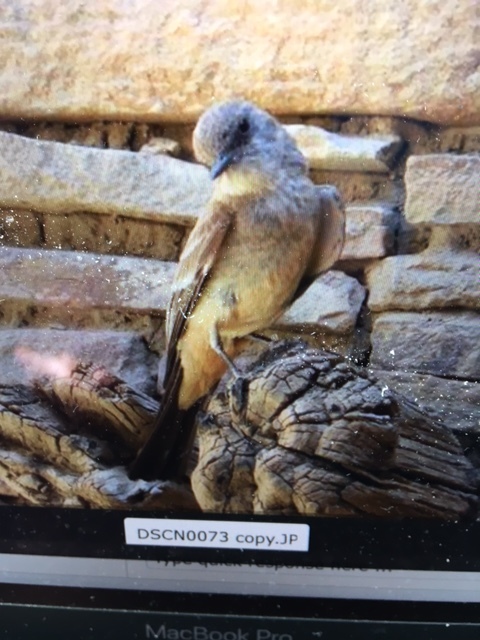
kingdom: Animalia
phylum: Chordata
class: Aves
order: Passeriformes
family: Tyrannidae
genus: Sayornis
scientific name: Sayornis saya
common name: Say's phoebe
